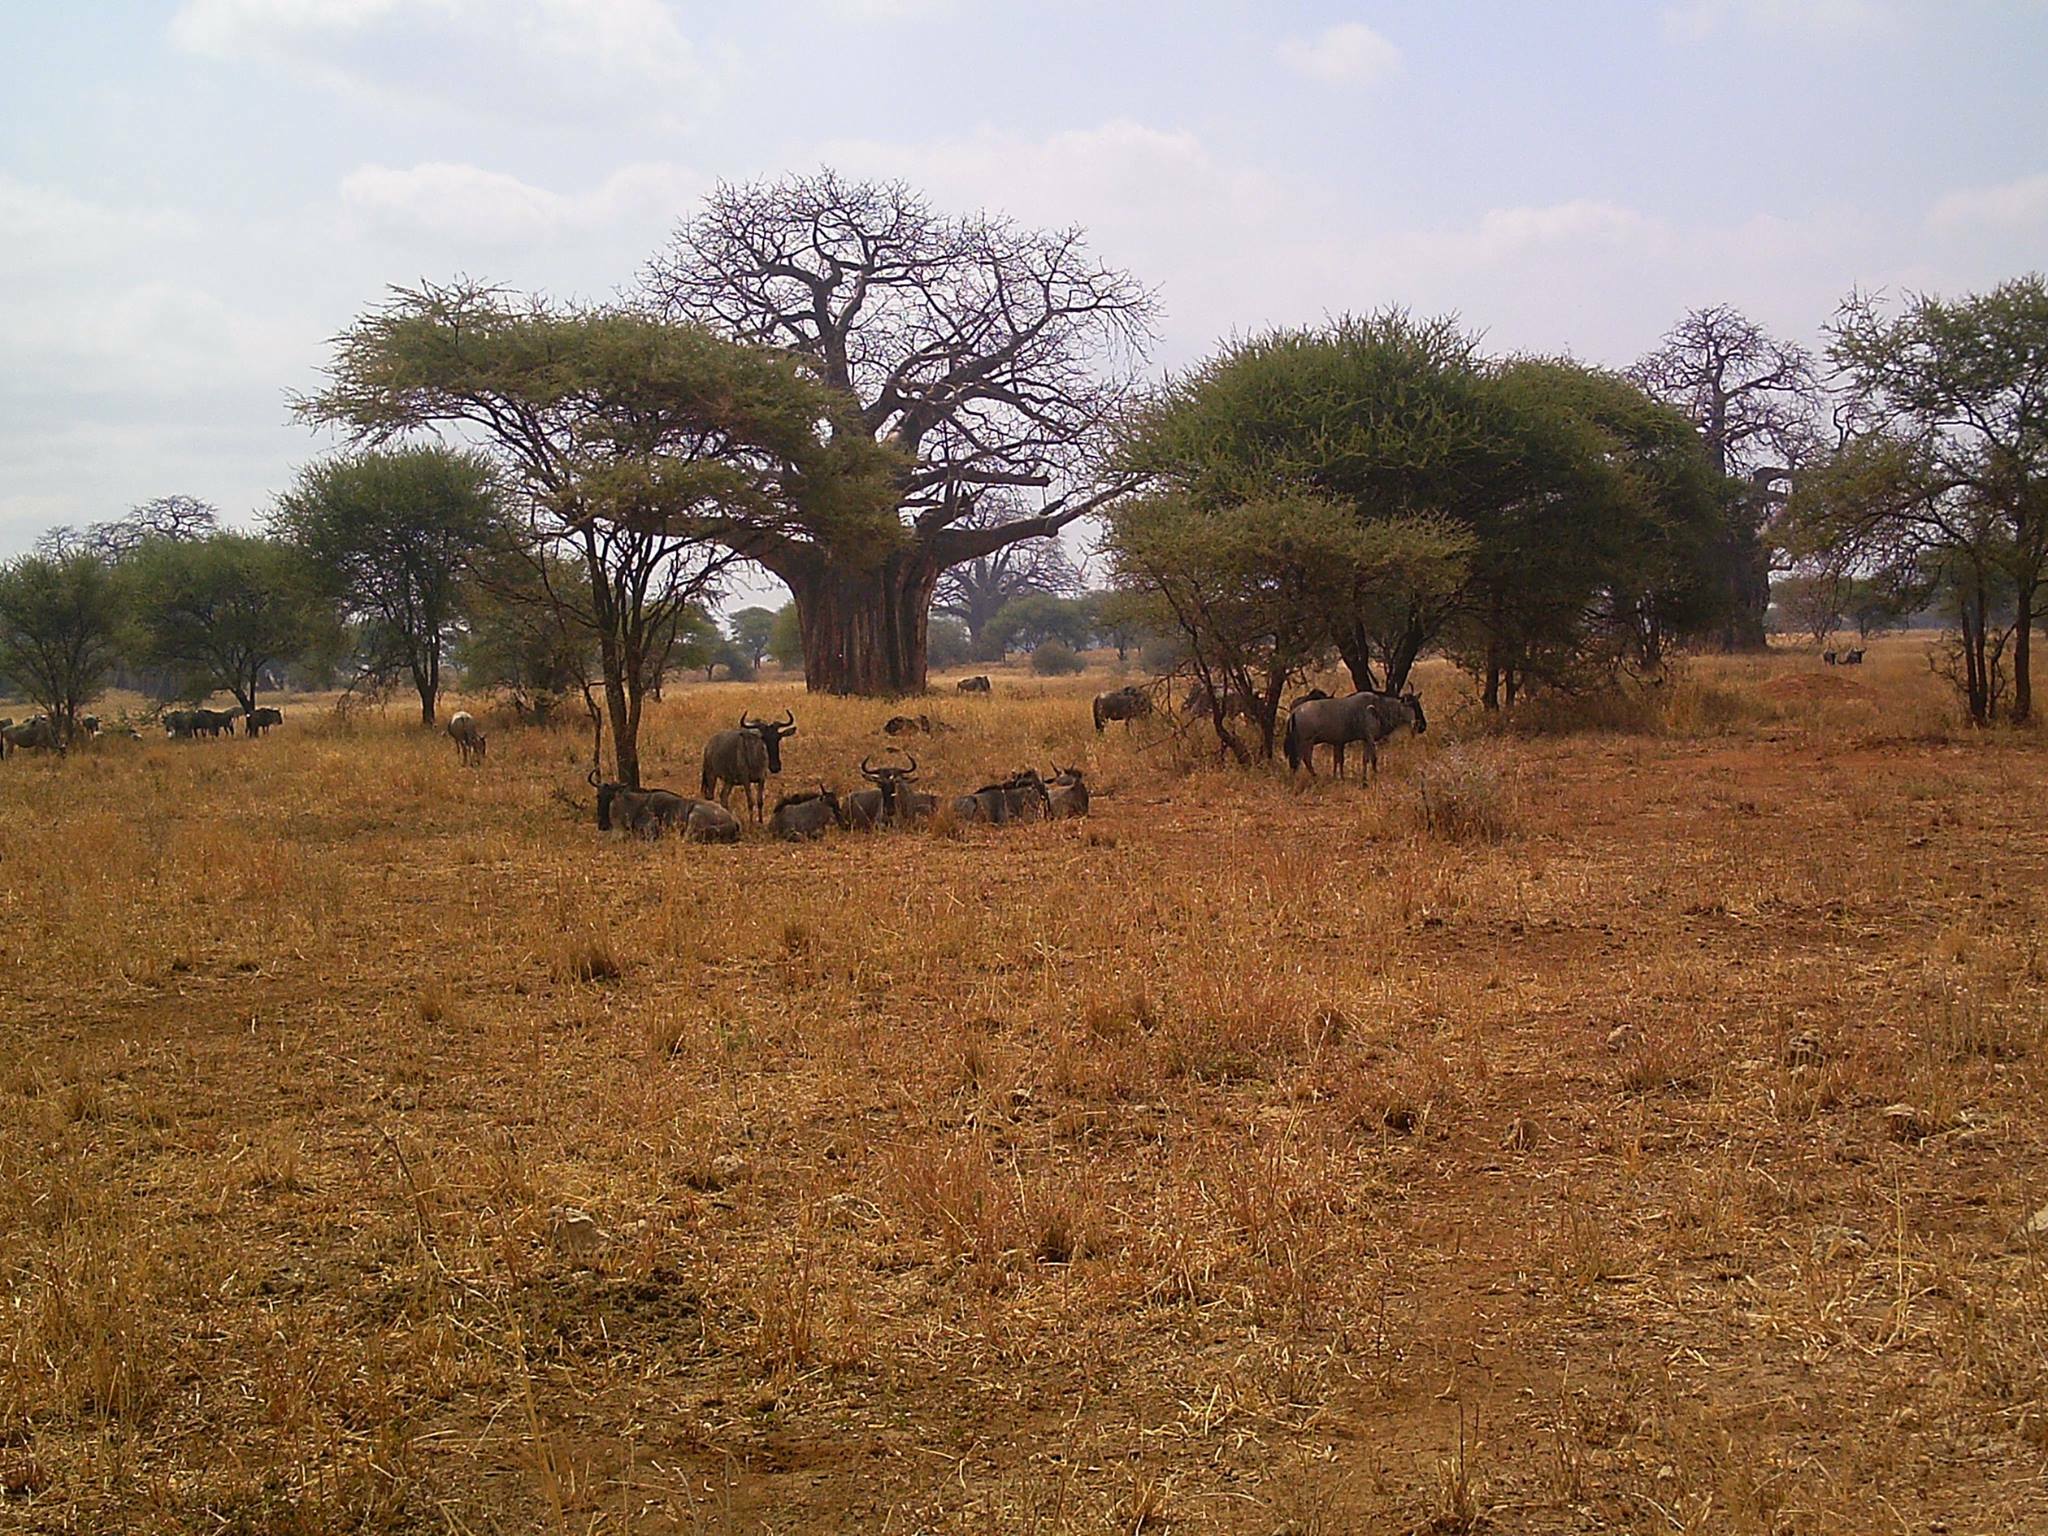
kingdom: Animalia
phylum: Chordata
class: Mammalia
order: Artiodactyla
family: Bovidae
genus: Connochaetes
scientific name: Connochaetes taurinus
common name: Blue wildebeest
